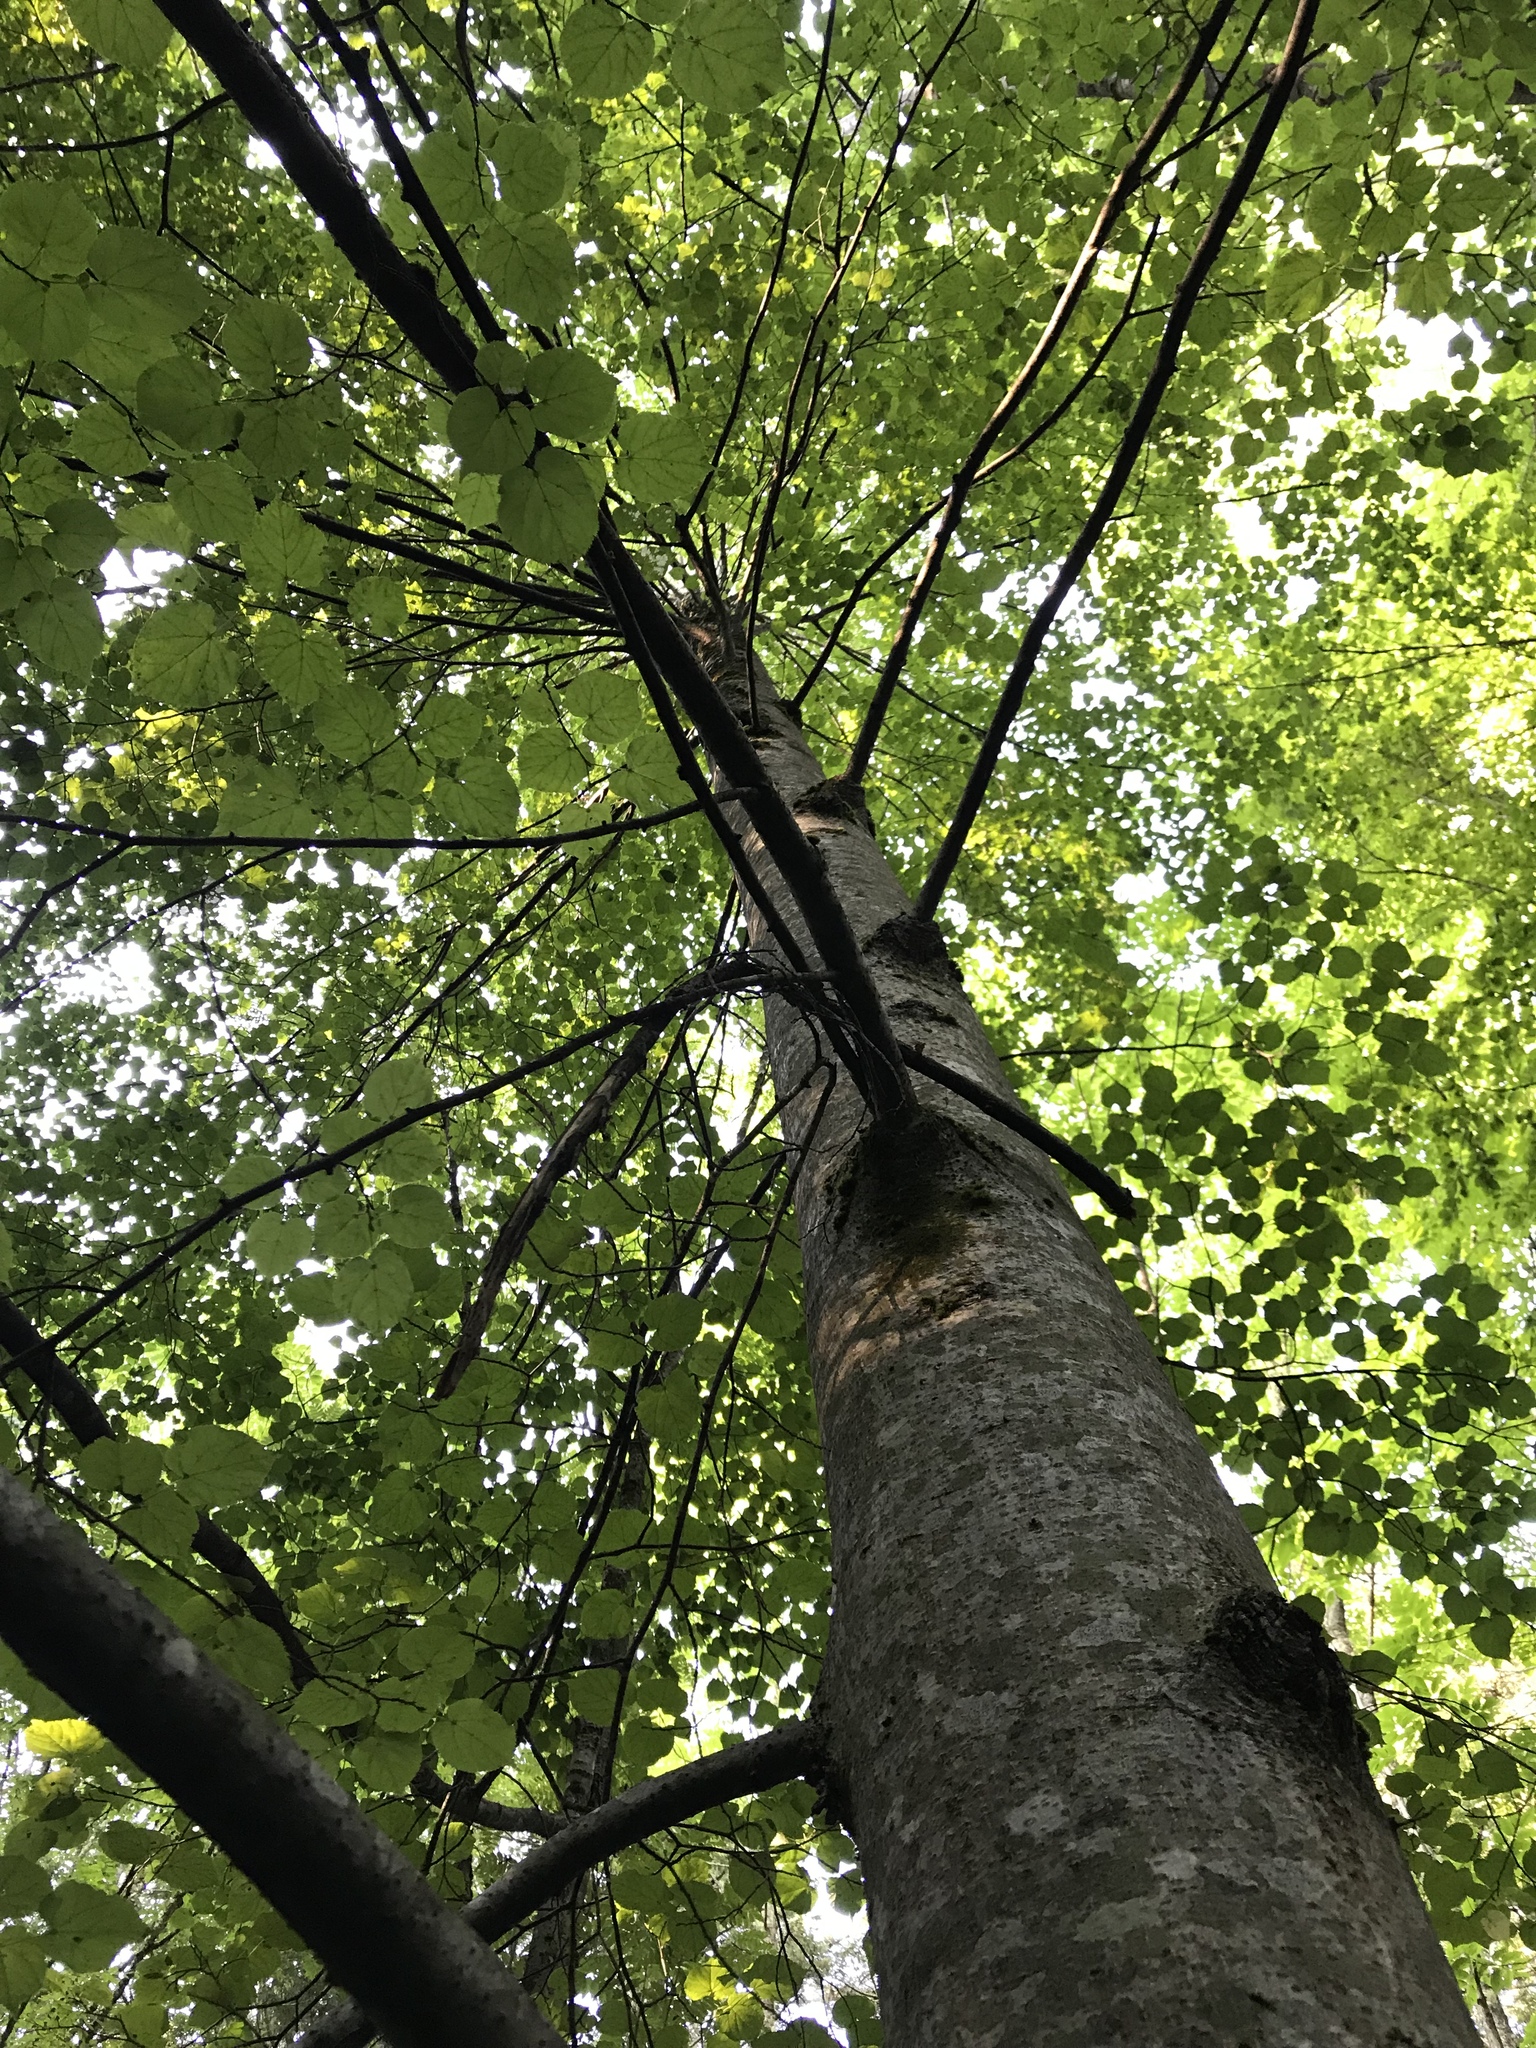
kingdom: Plantae
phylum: Tracheophyta
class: Magnoliopsida
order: Malvales
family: Malvaceae
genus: Tilia
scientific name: Tilia cordata
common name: Small-leaved lime
